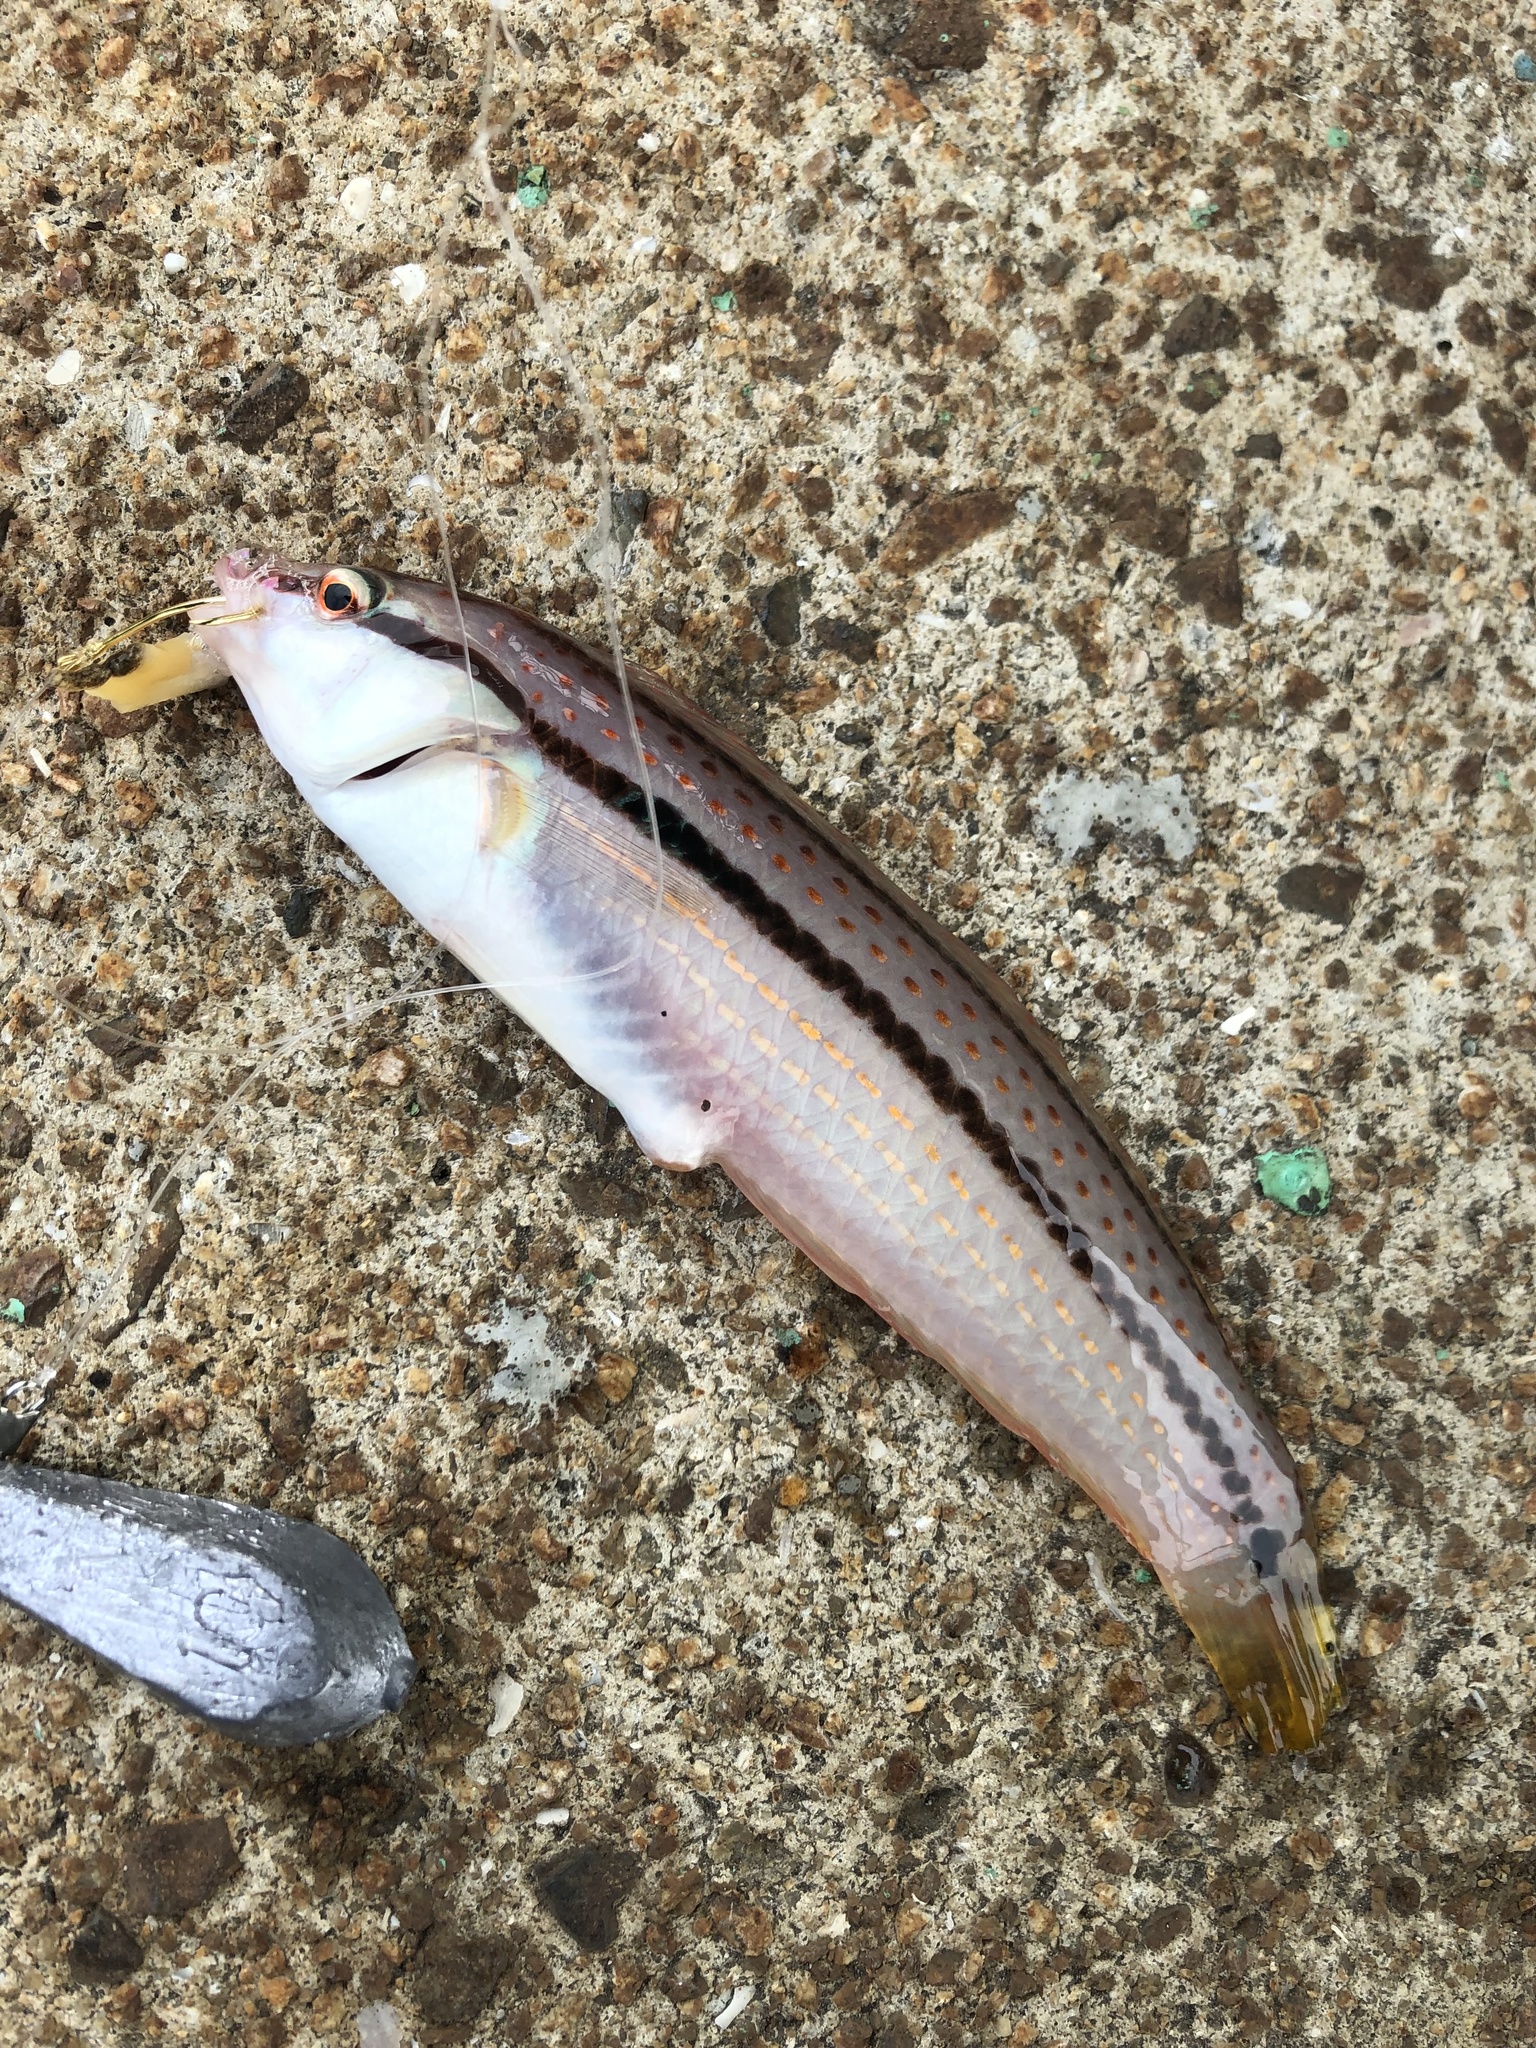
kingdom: Animalia
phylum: Chordata
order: Perciformes
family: Labridae
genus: Parajulis
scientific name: Parajulis poecilepterus
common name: Multicolorfin rainbowfish
